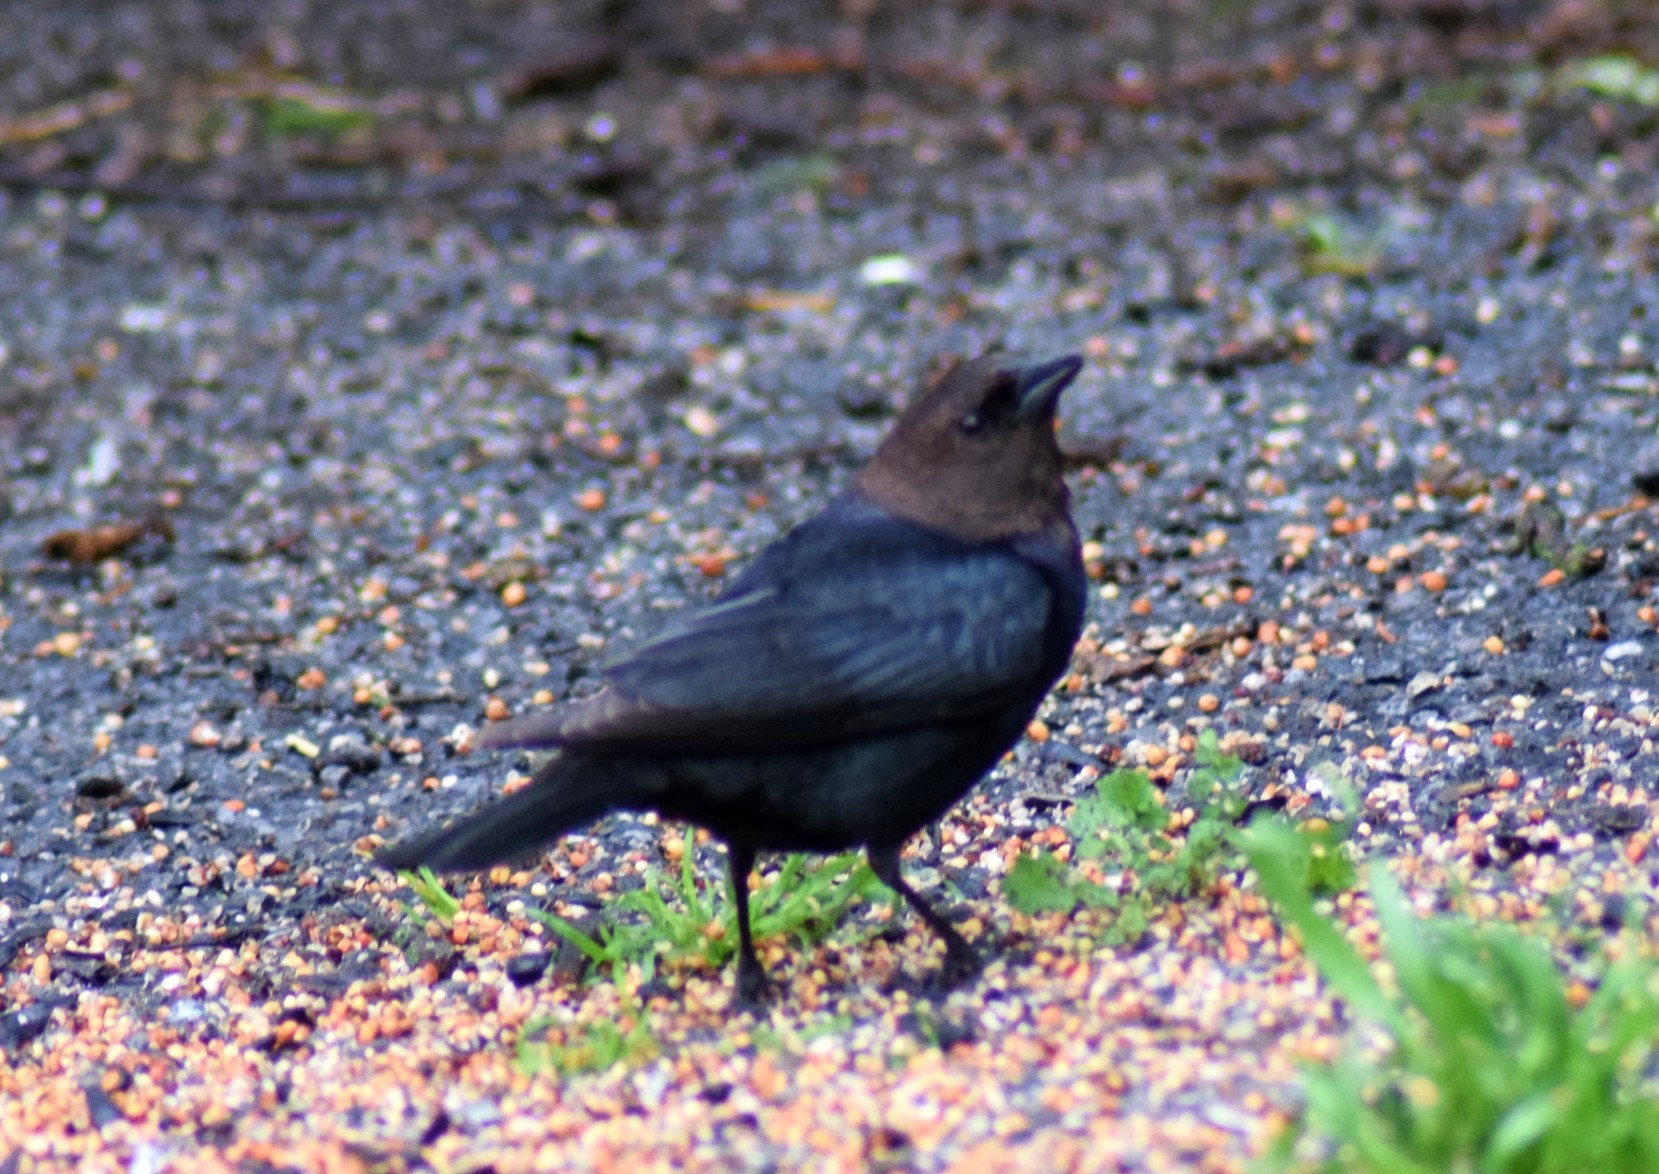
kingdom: Animalia
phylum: Chordata
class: Aves
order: Passeriformes
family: Icteridae
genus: Molothrus
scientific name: Molothrus ater
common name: Brown-headed cowbird
